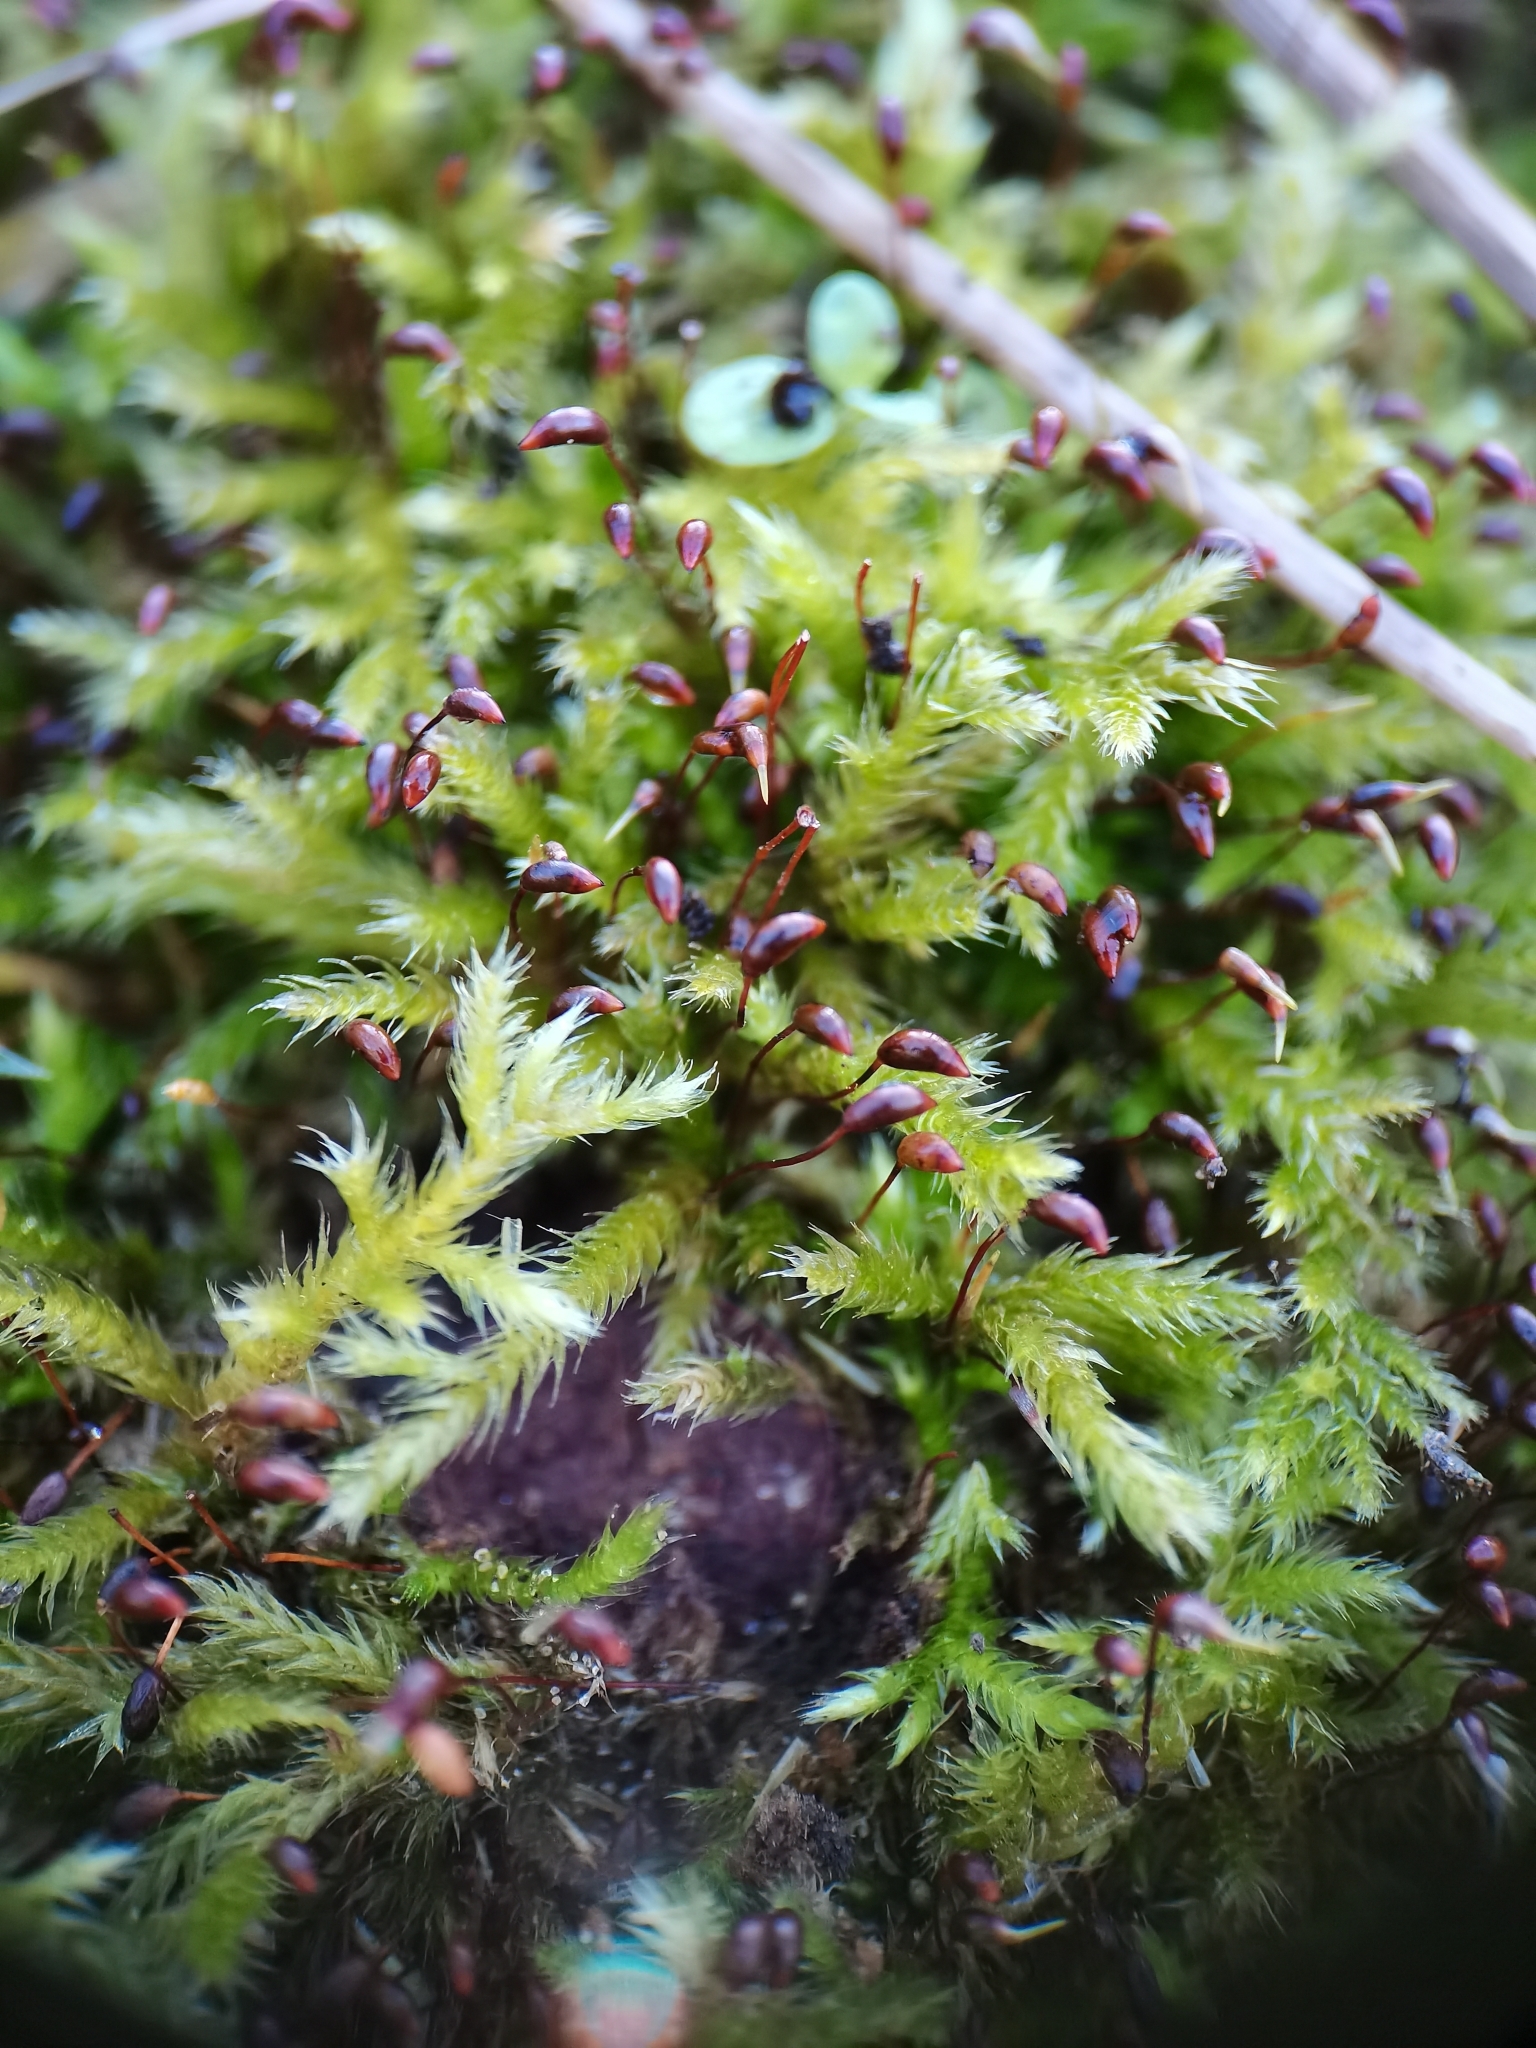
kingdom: Plantae
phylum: Bryophyta
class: Bryopsida
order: Hypnales
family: Brachytheciaceae
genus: Brachythecium
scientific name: Brachythecium rutabulum
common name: Rough-stalked feather-moss
